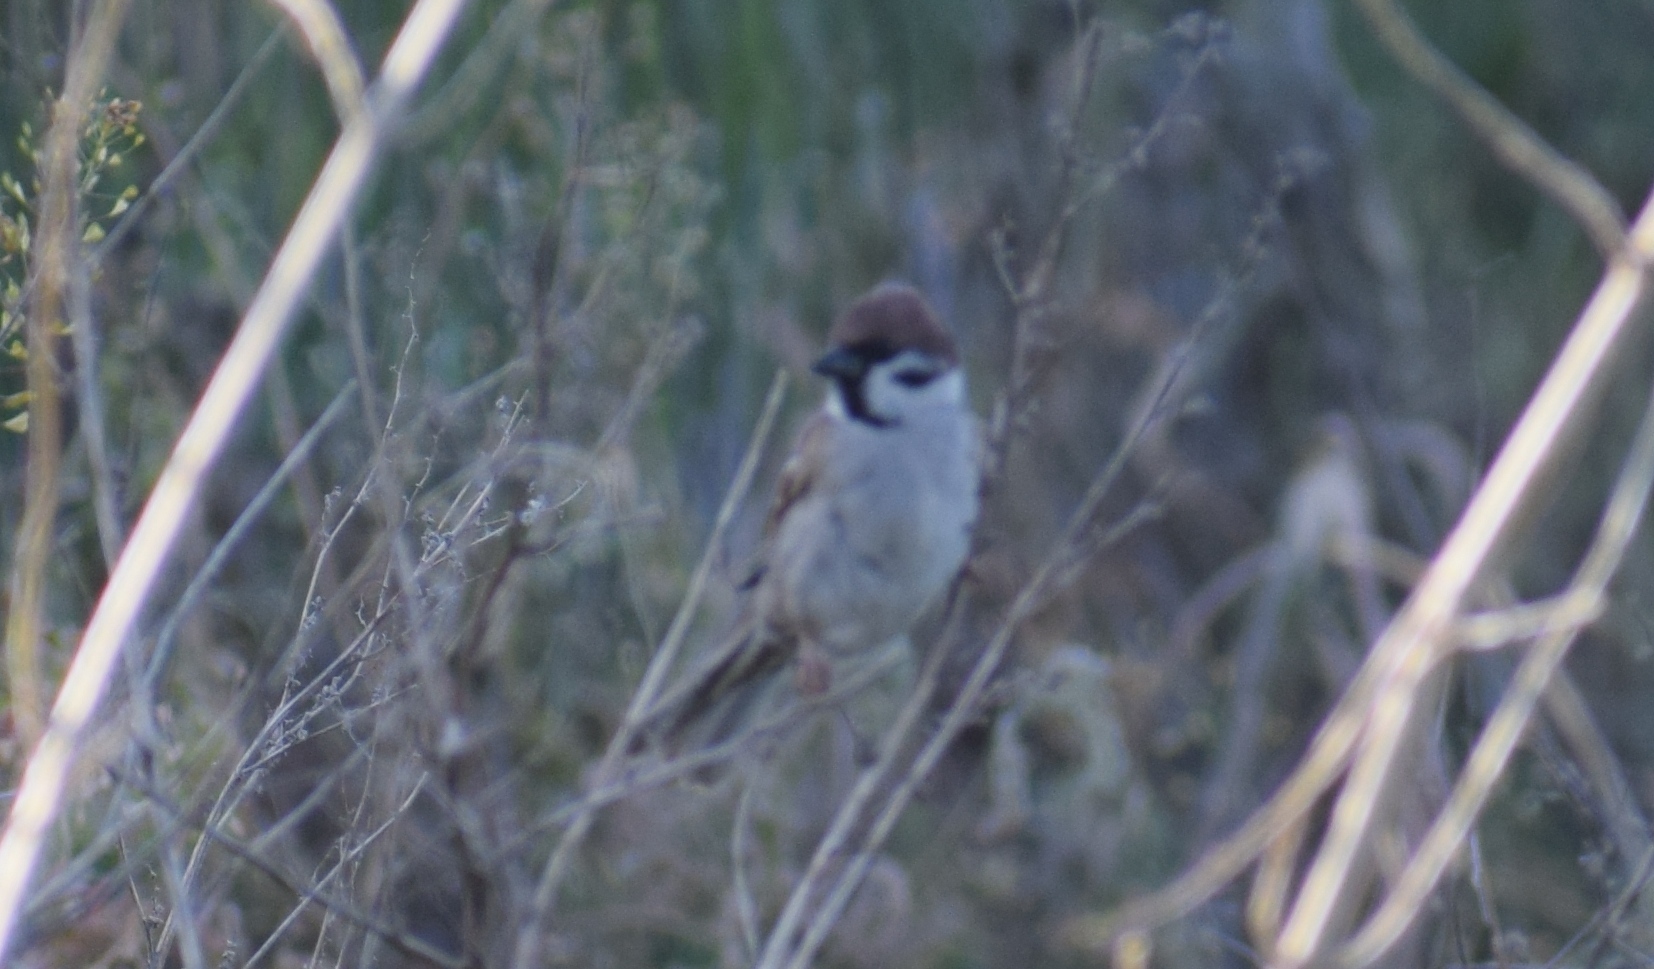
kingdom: Animalia
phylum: Chordata
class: Aves
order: Passeriformes
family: Passeridae
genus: Passer
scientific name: Passer montanus
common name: Eurasian tree sparrow
